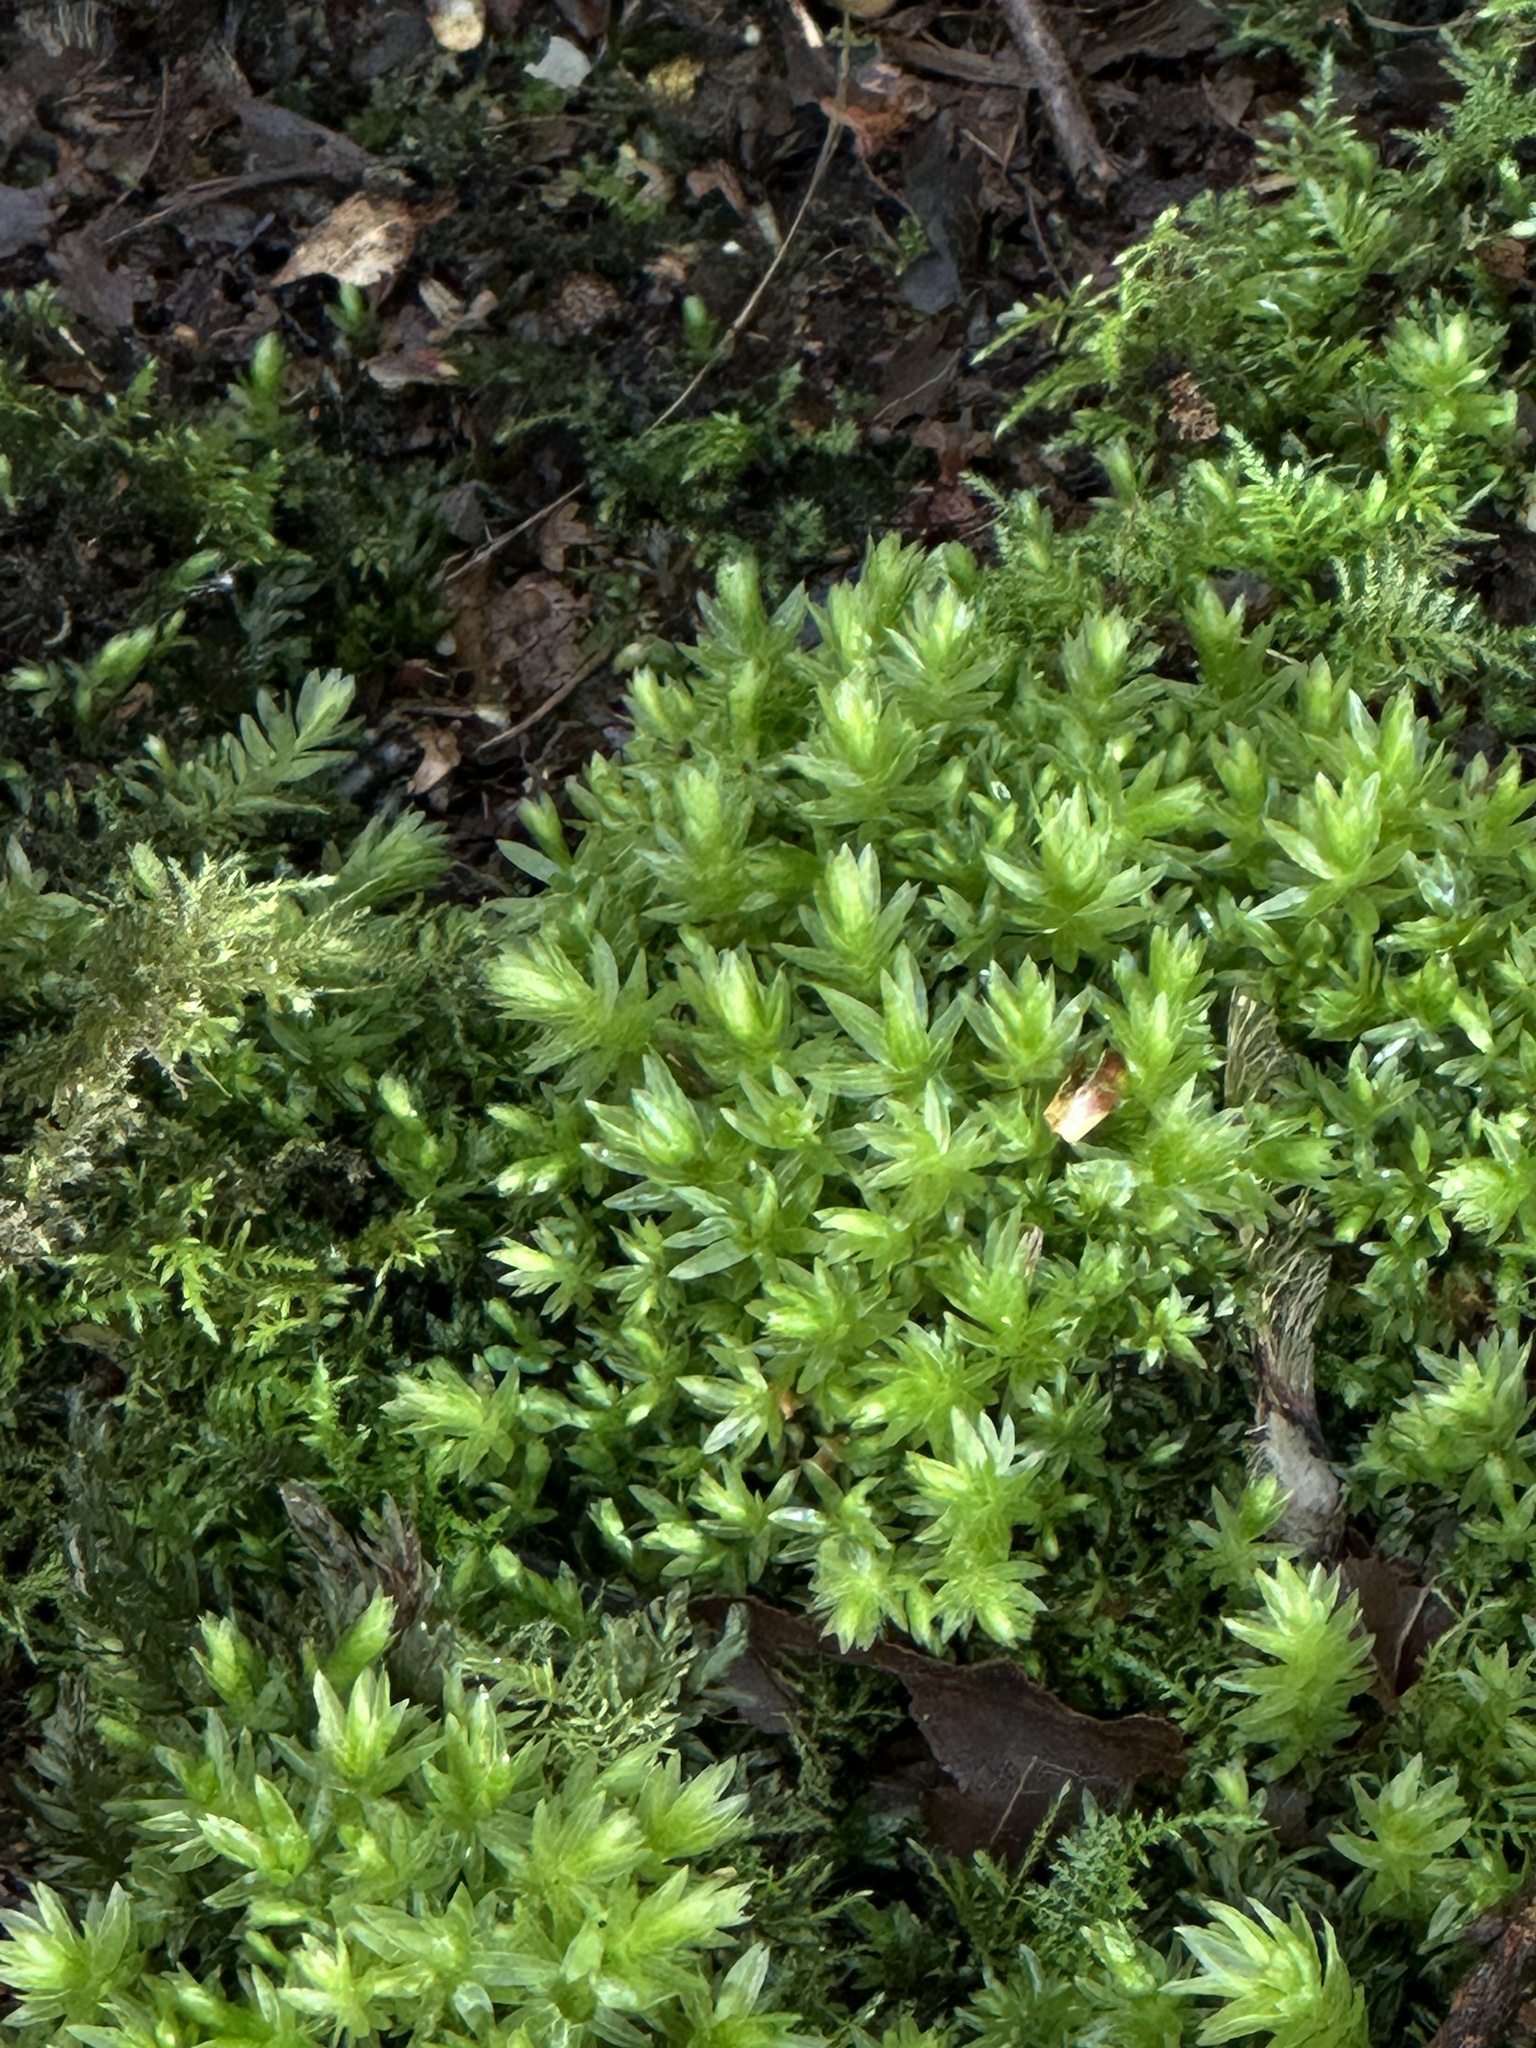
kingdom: Plantae
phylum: Bryophyta
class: Bryopsida
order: Bryales
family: Mniaceae
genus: Mnium
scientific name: Mnium hornum
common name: Swan's-neck leafy moss
